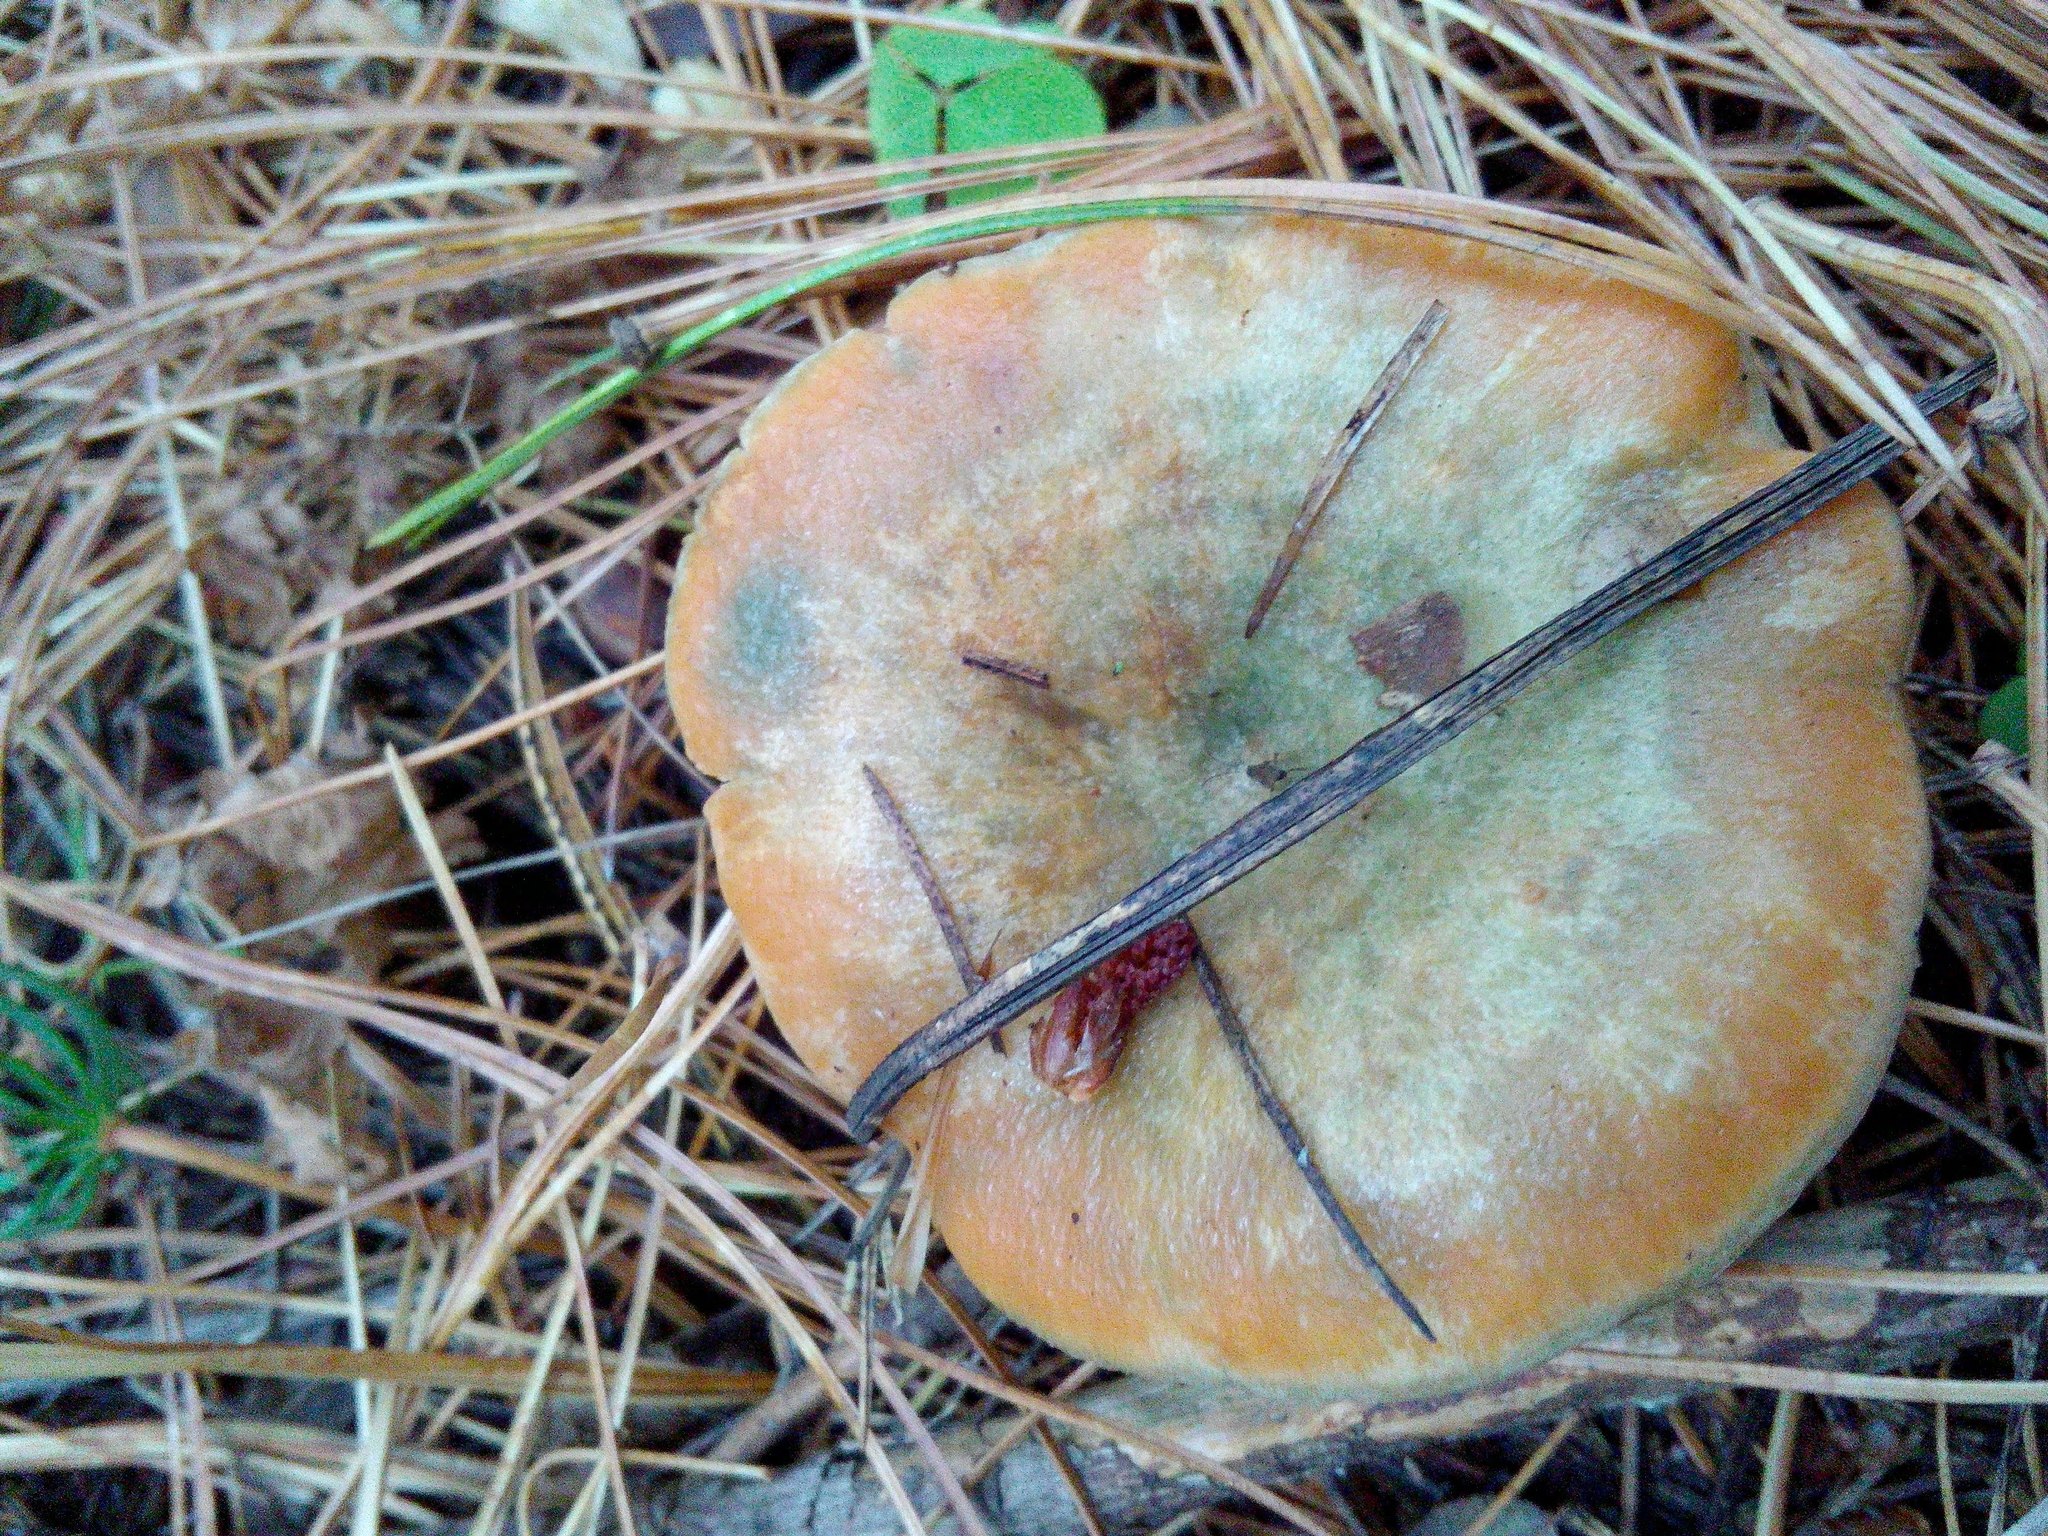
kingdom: Fungi
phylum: Basidiomycota
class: Agaricomycetes
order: Russulales
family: Russulaceae
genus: Lactarius
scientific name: Lactarius deliciosus
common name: Saffron milk-cap
